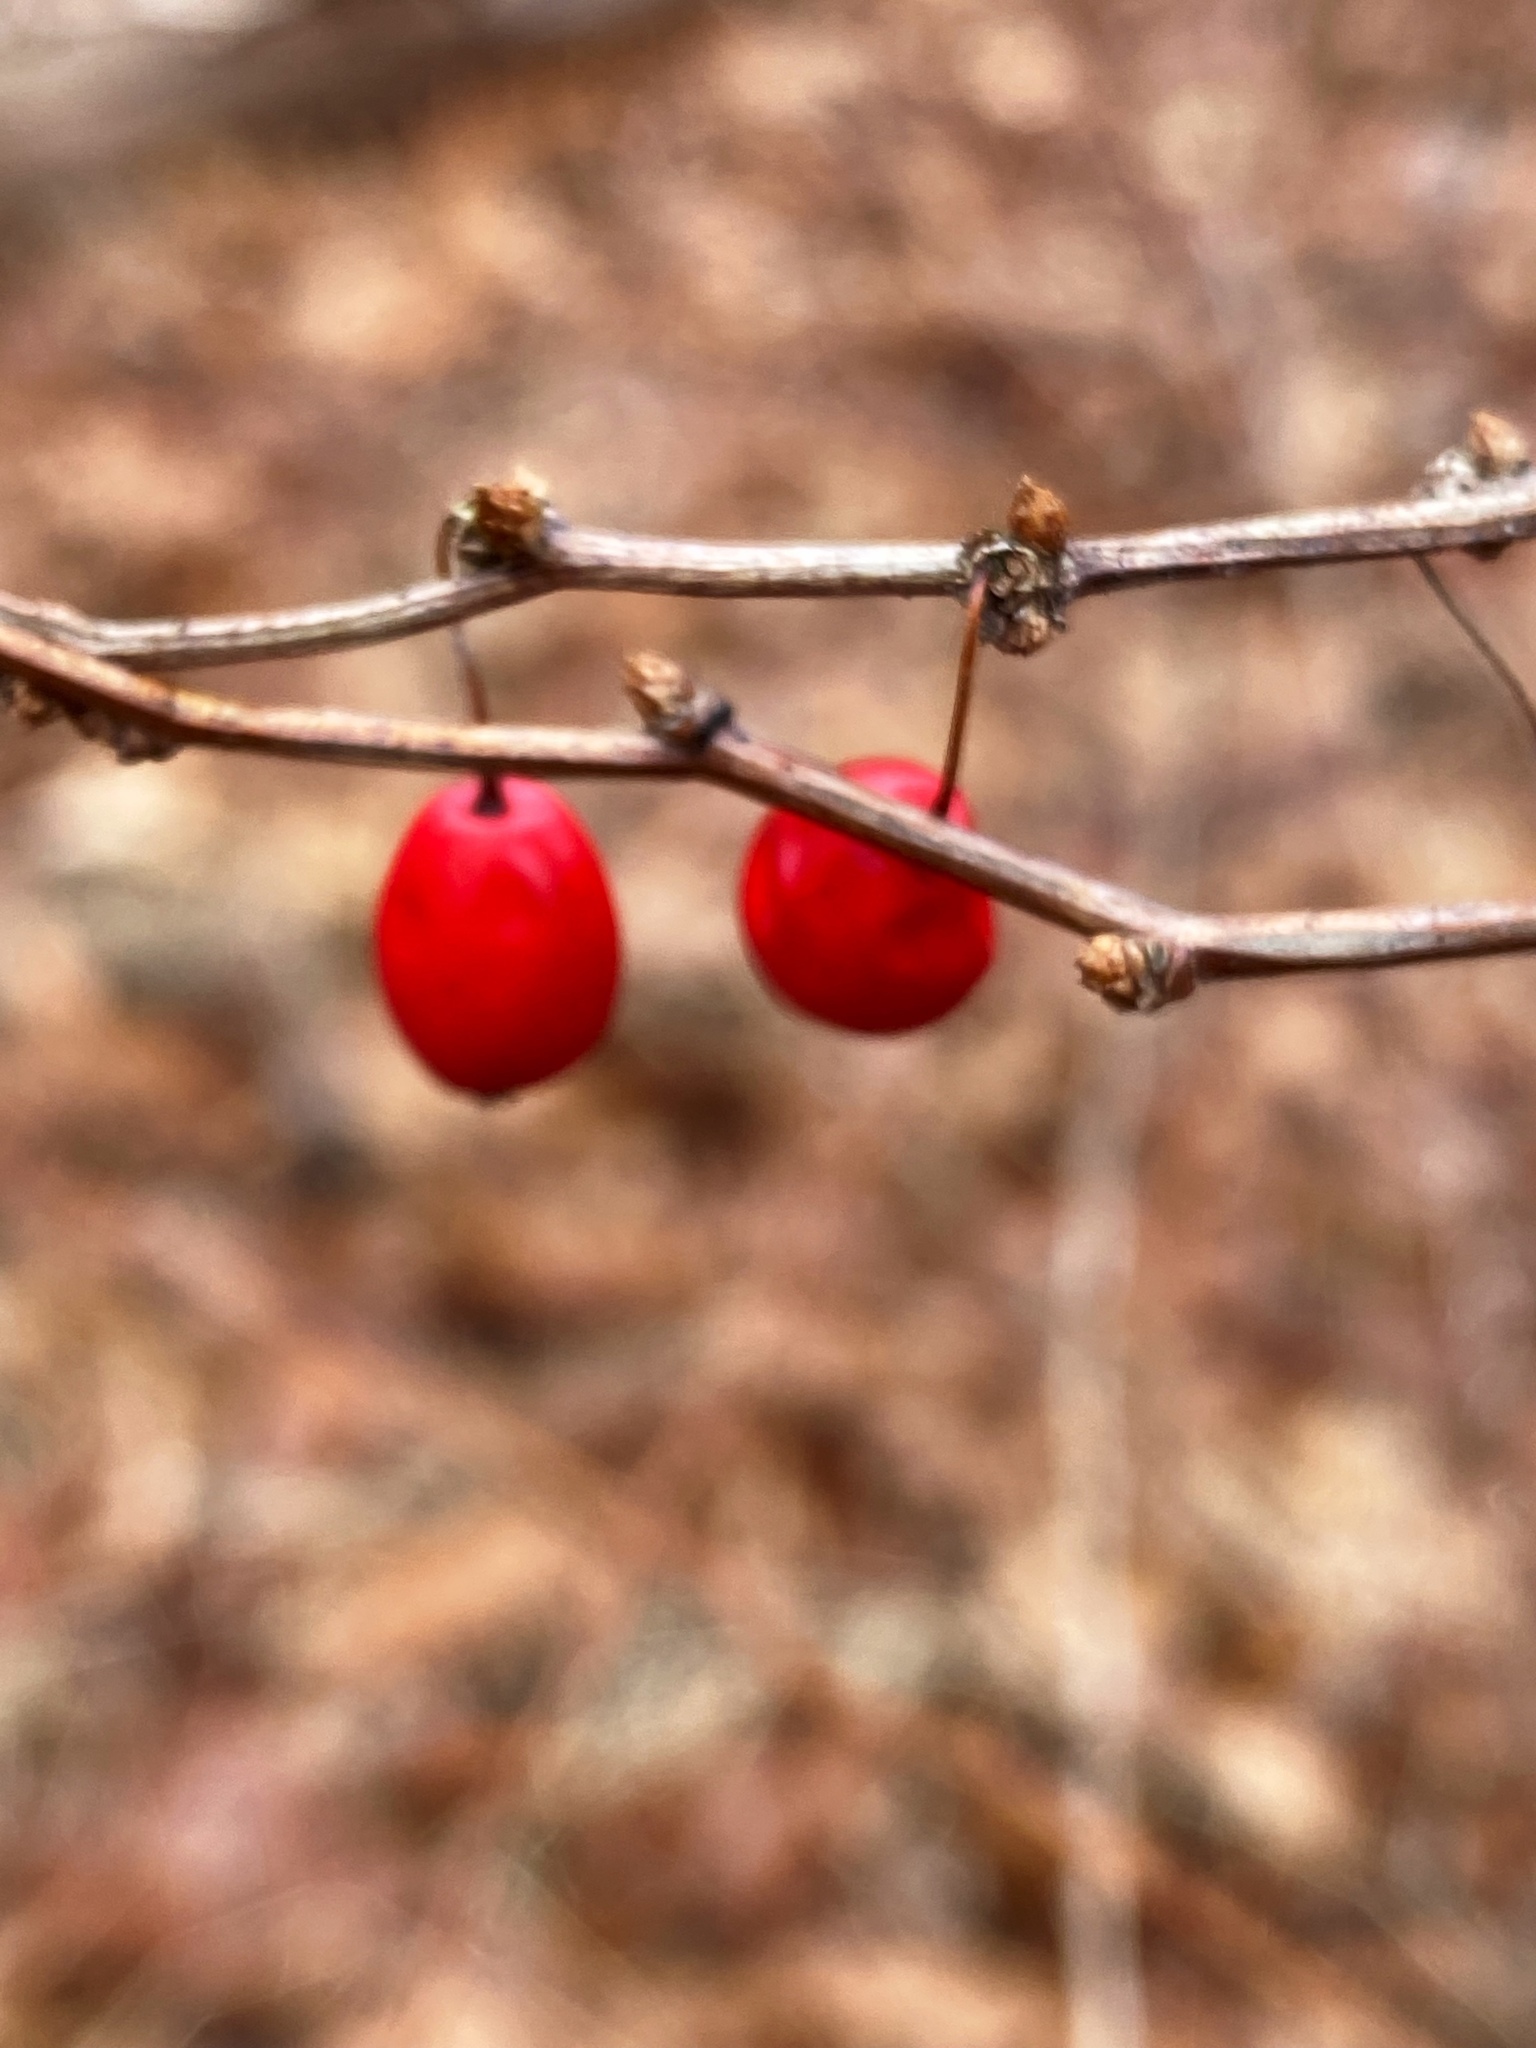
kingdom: Plantae
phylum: Tracheophyta
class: Magnoliopsida
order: Ranunculales
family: Berberidaceae
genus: Berberis
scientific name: Berberis thunbergii
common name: Japanese barberry
